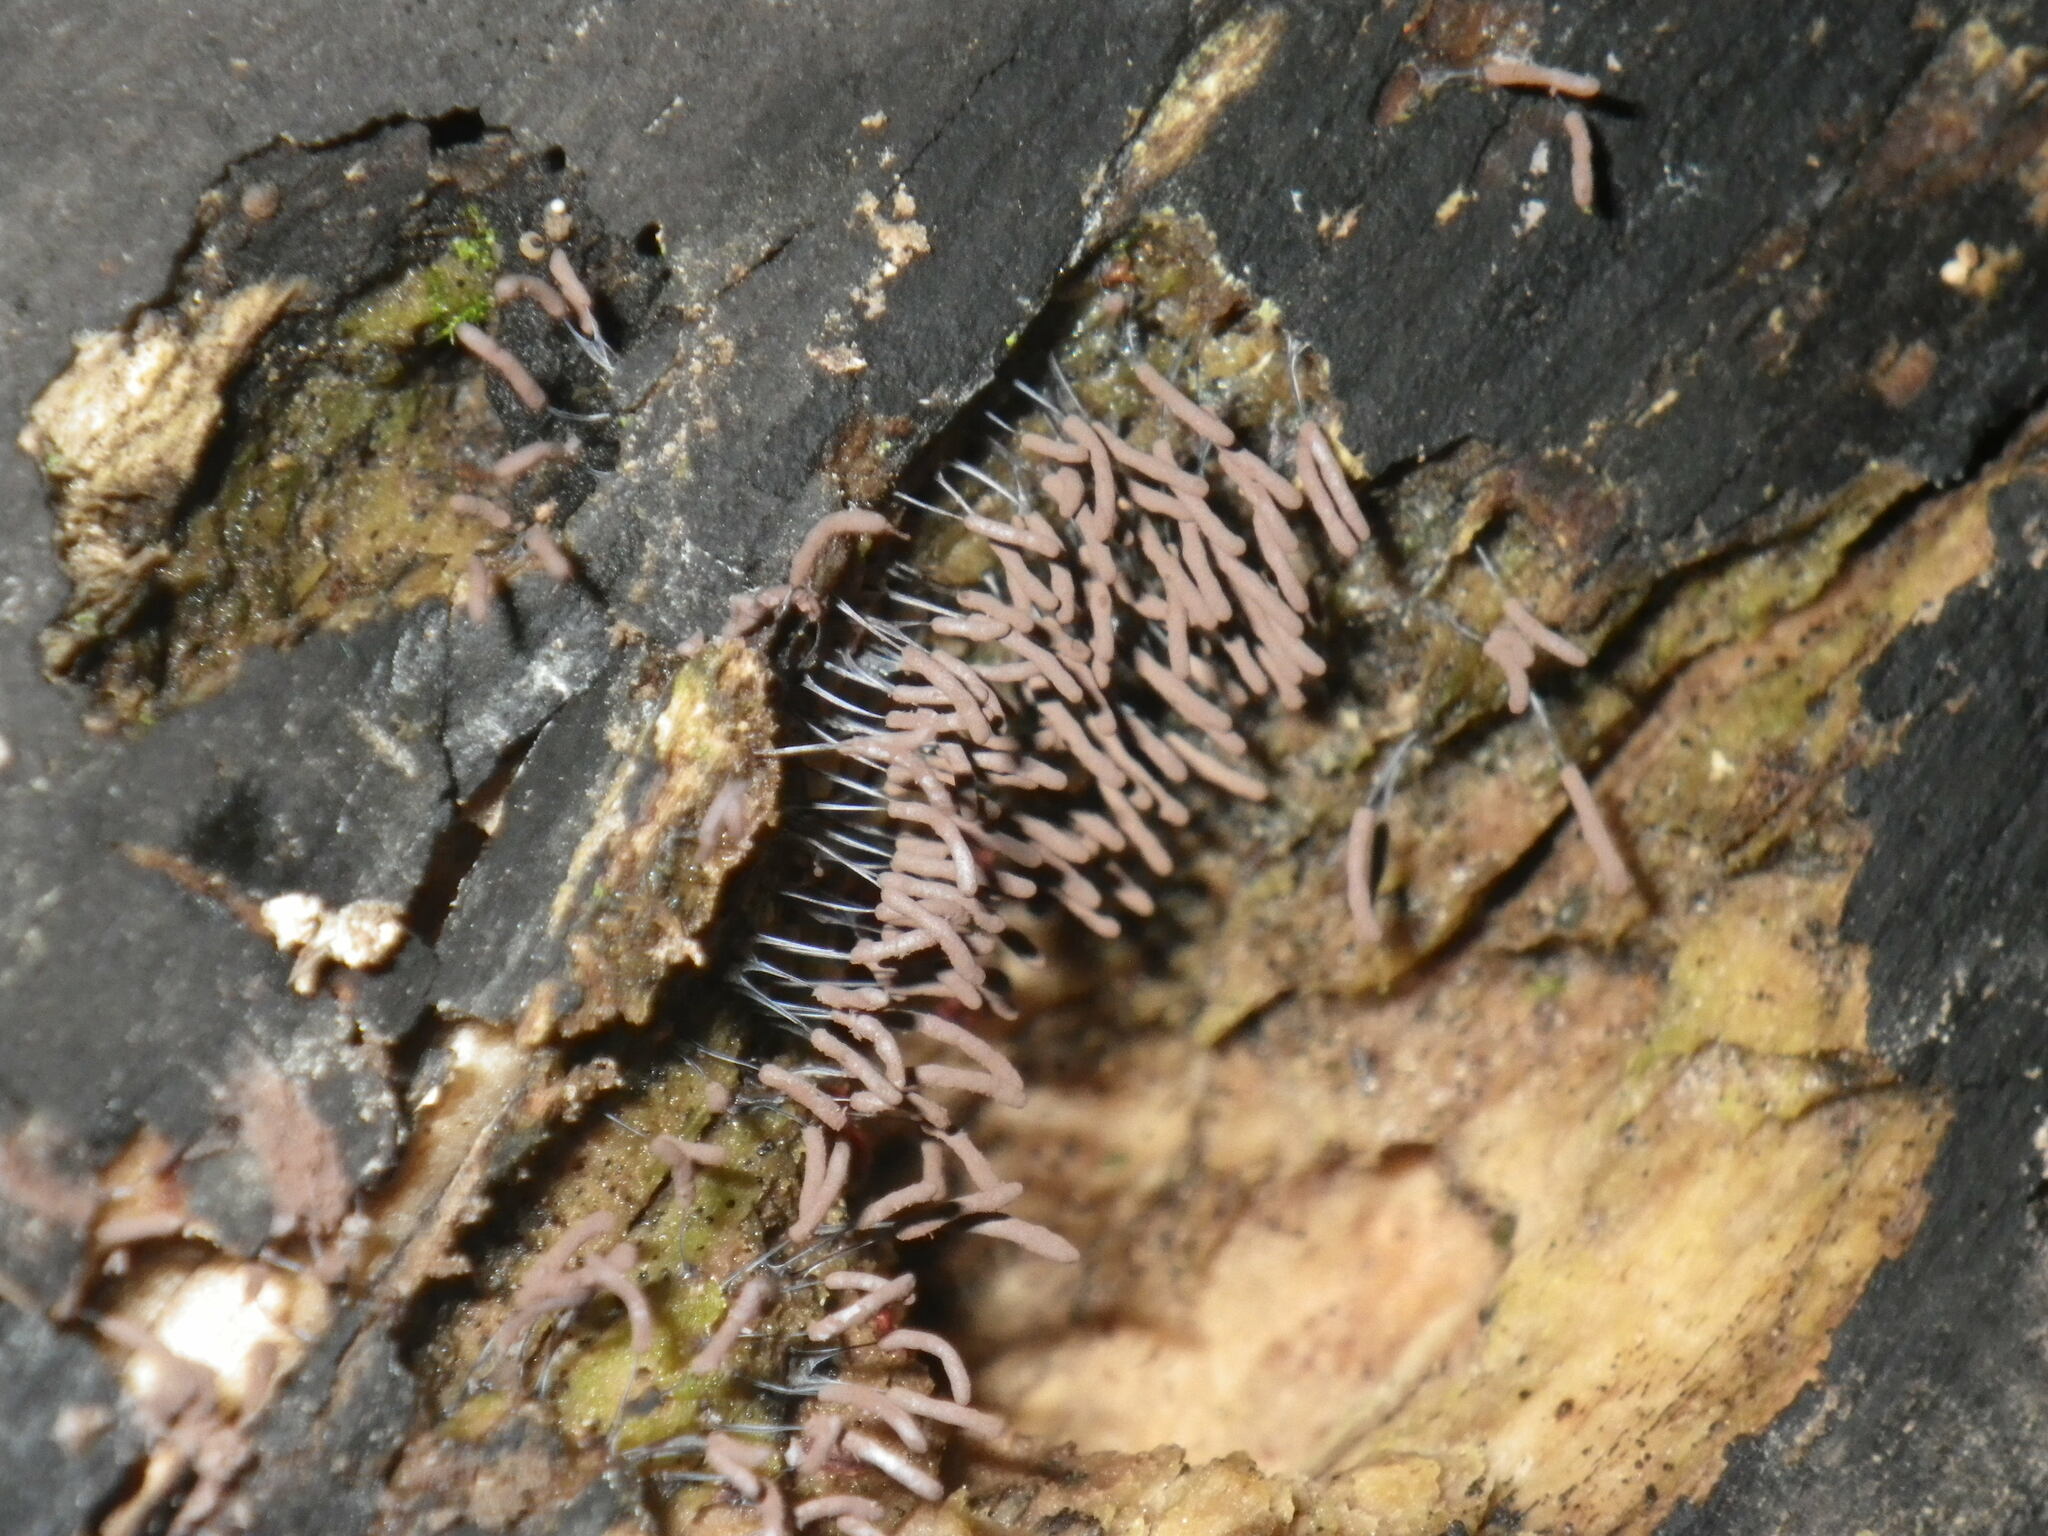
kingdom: Protozoa
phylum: Mycetozoa
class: Myxomycetes
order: Stemonitidales
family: Stemonitidaceae
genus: Stemonitopsis
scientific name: Stemonitopsis typhina
